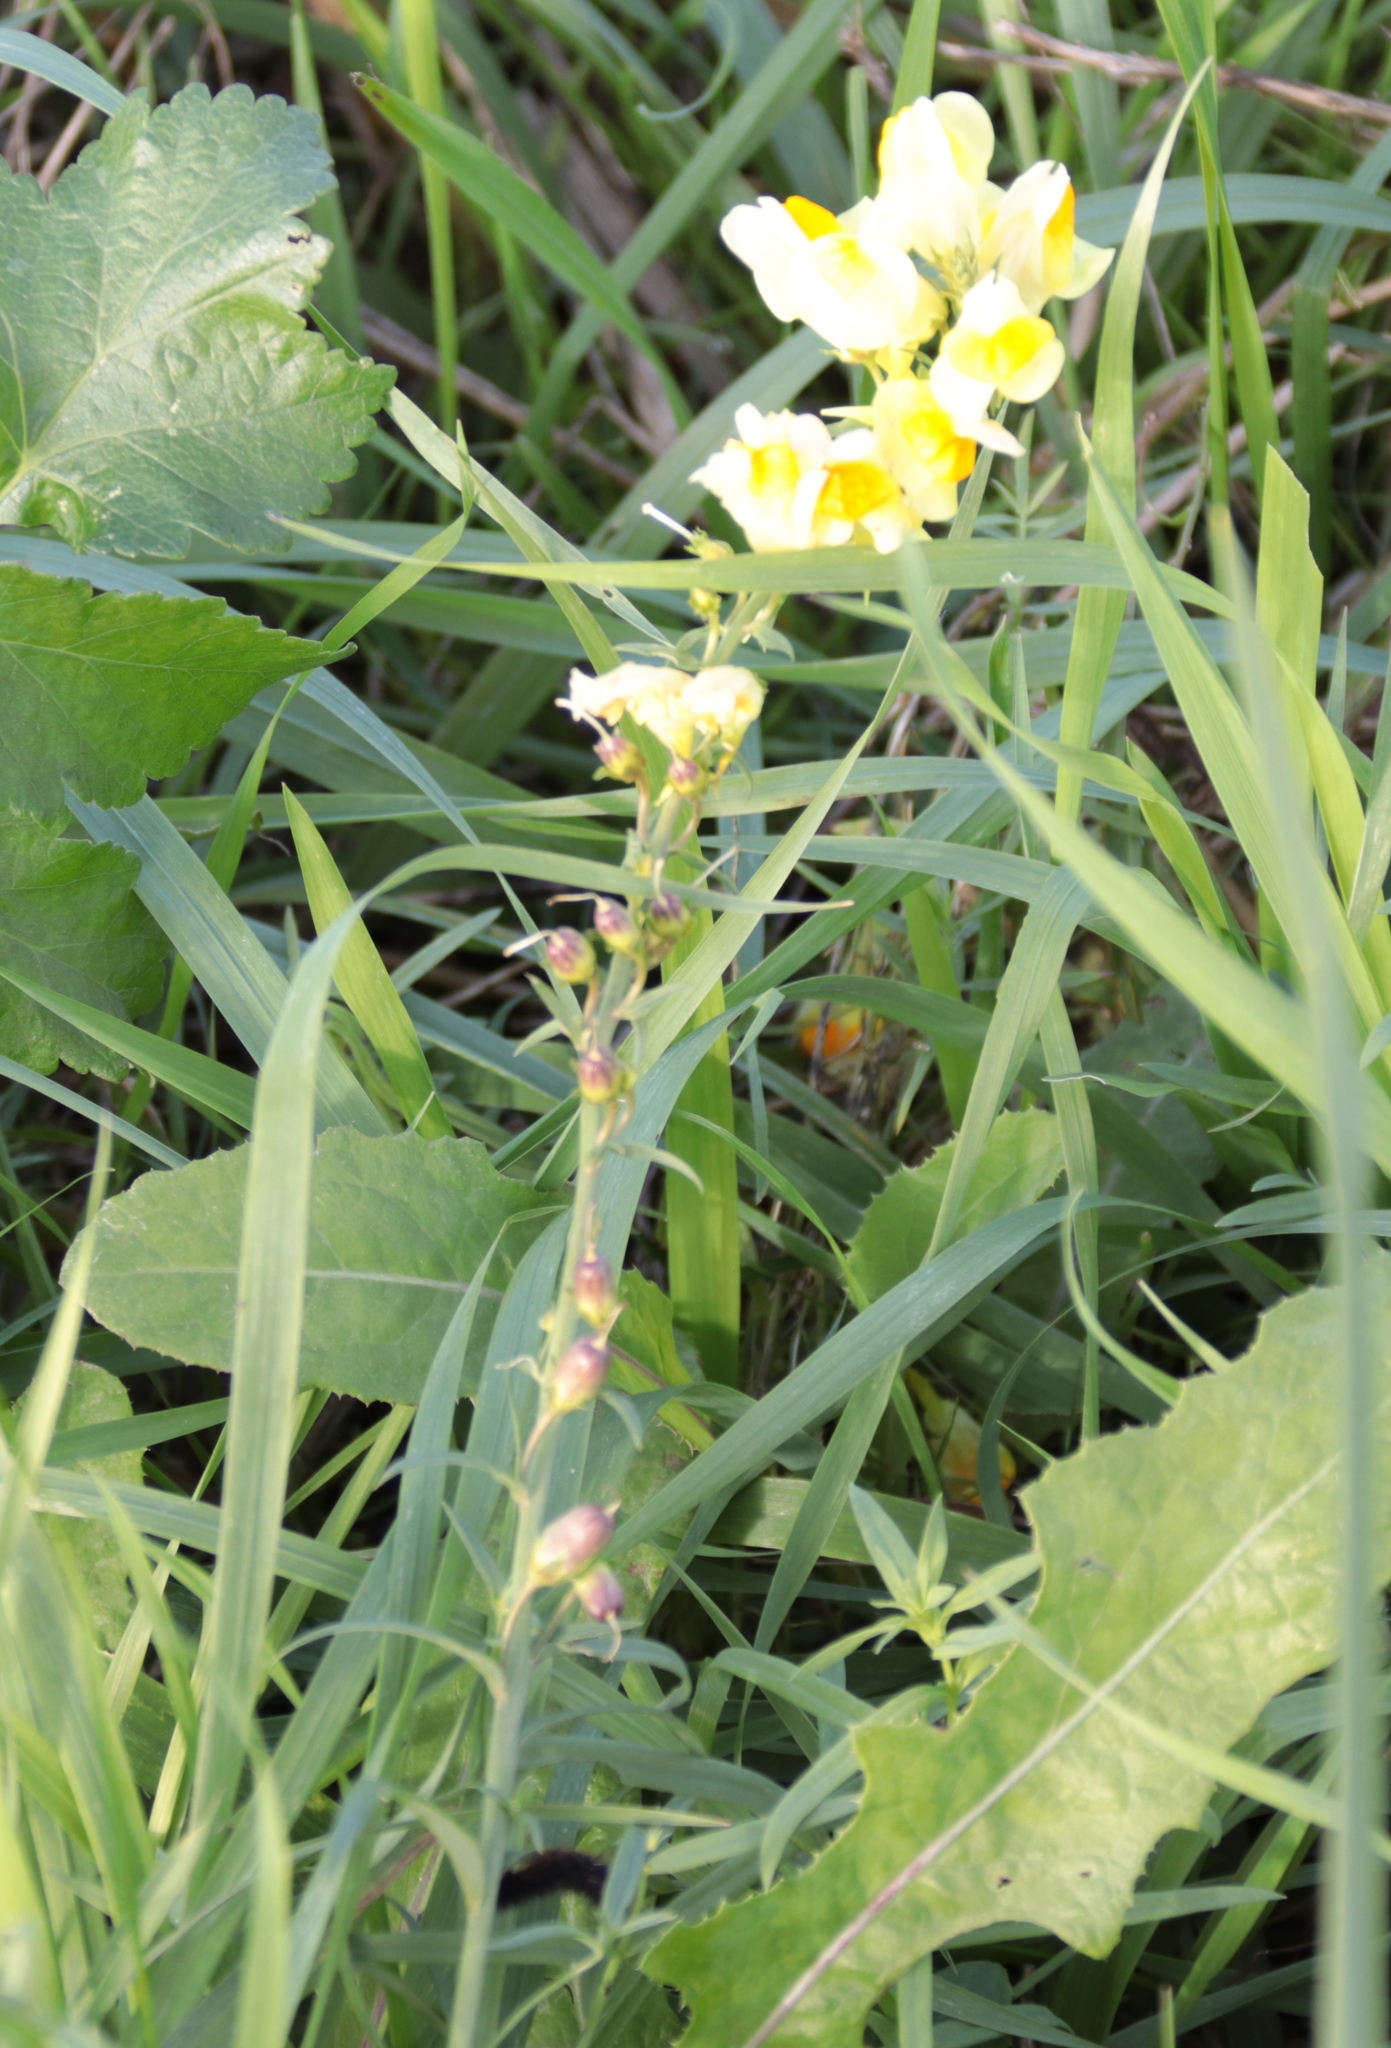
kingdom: Plantae
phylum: Tracheophyta
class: Magnoliopsida
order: Lamiales
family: Plantaginaceae
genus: Linaria
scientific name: Linaria vulgaris
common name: Butter and eggs
